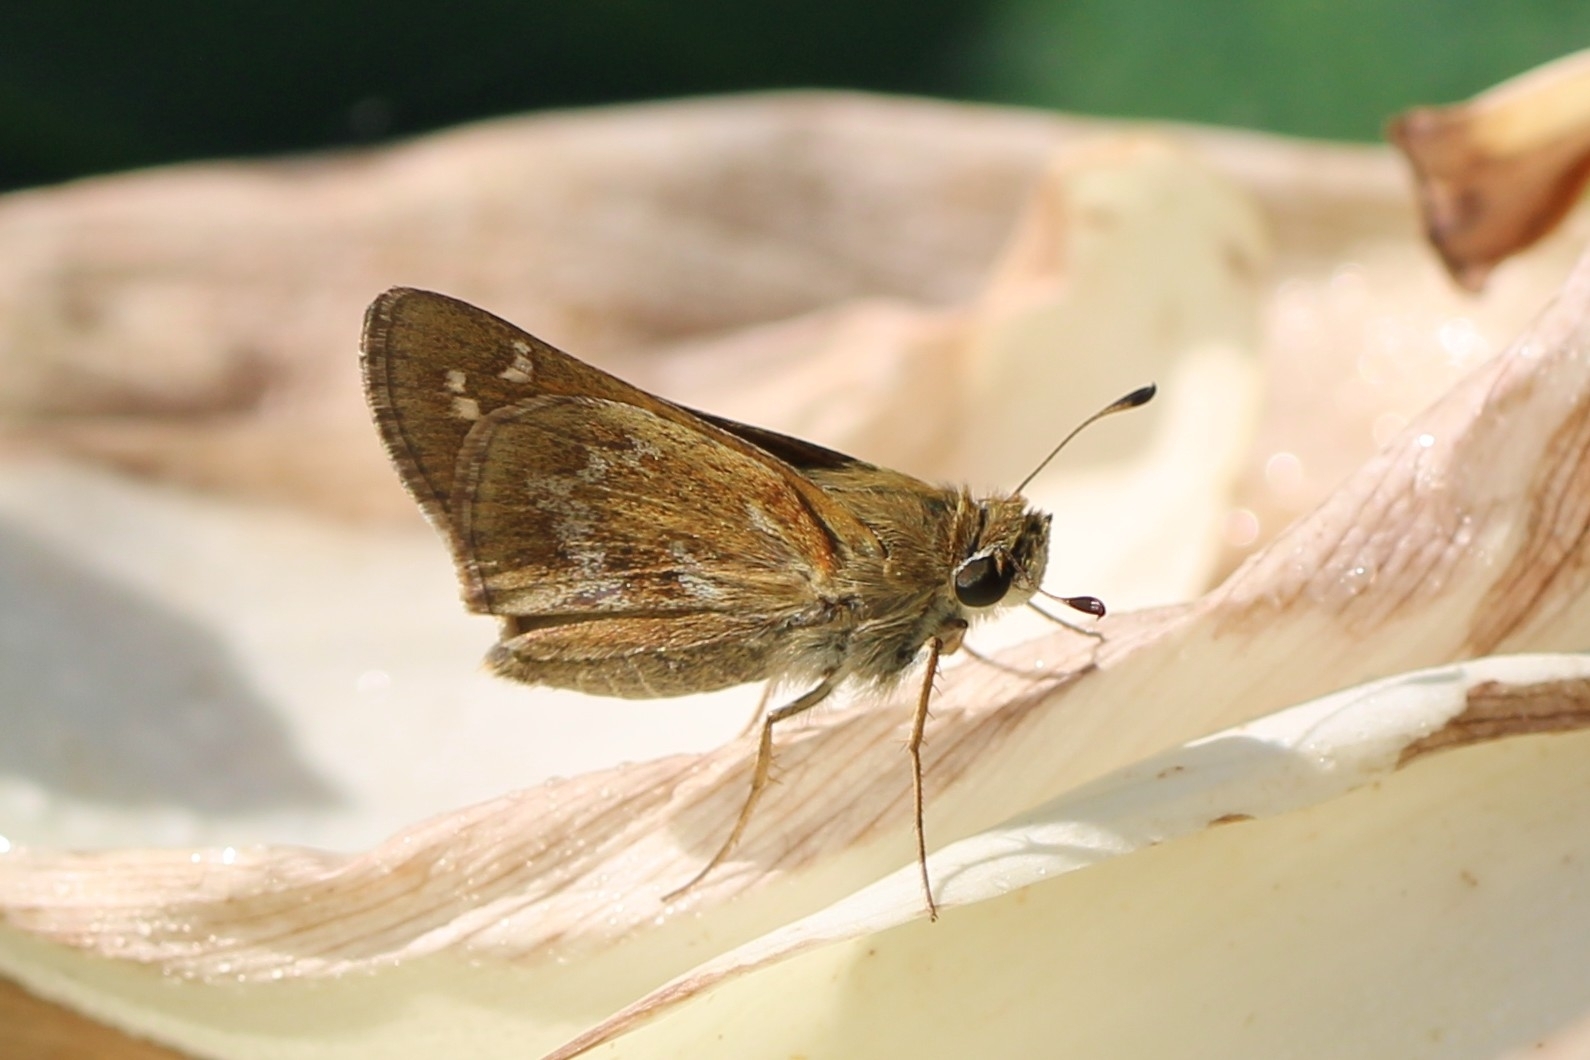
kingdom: Animalia
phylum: Arthropoda
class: Insecta
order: Lepidoptera
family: Hesperiidae
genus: Atalopedes
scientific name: Atalopedes
